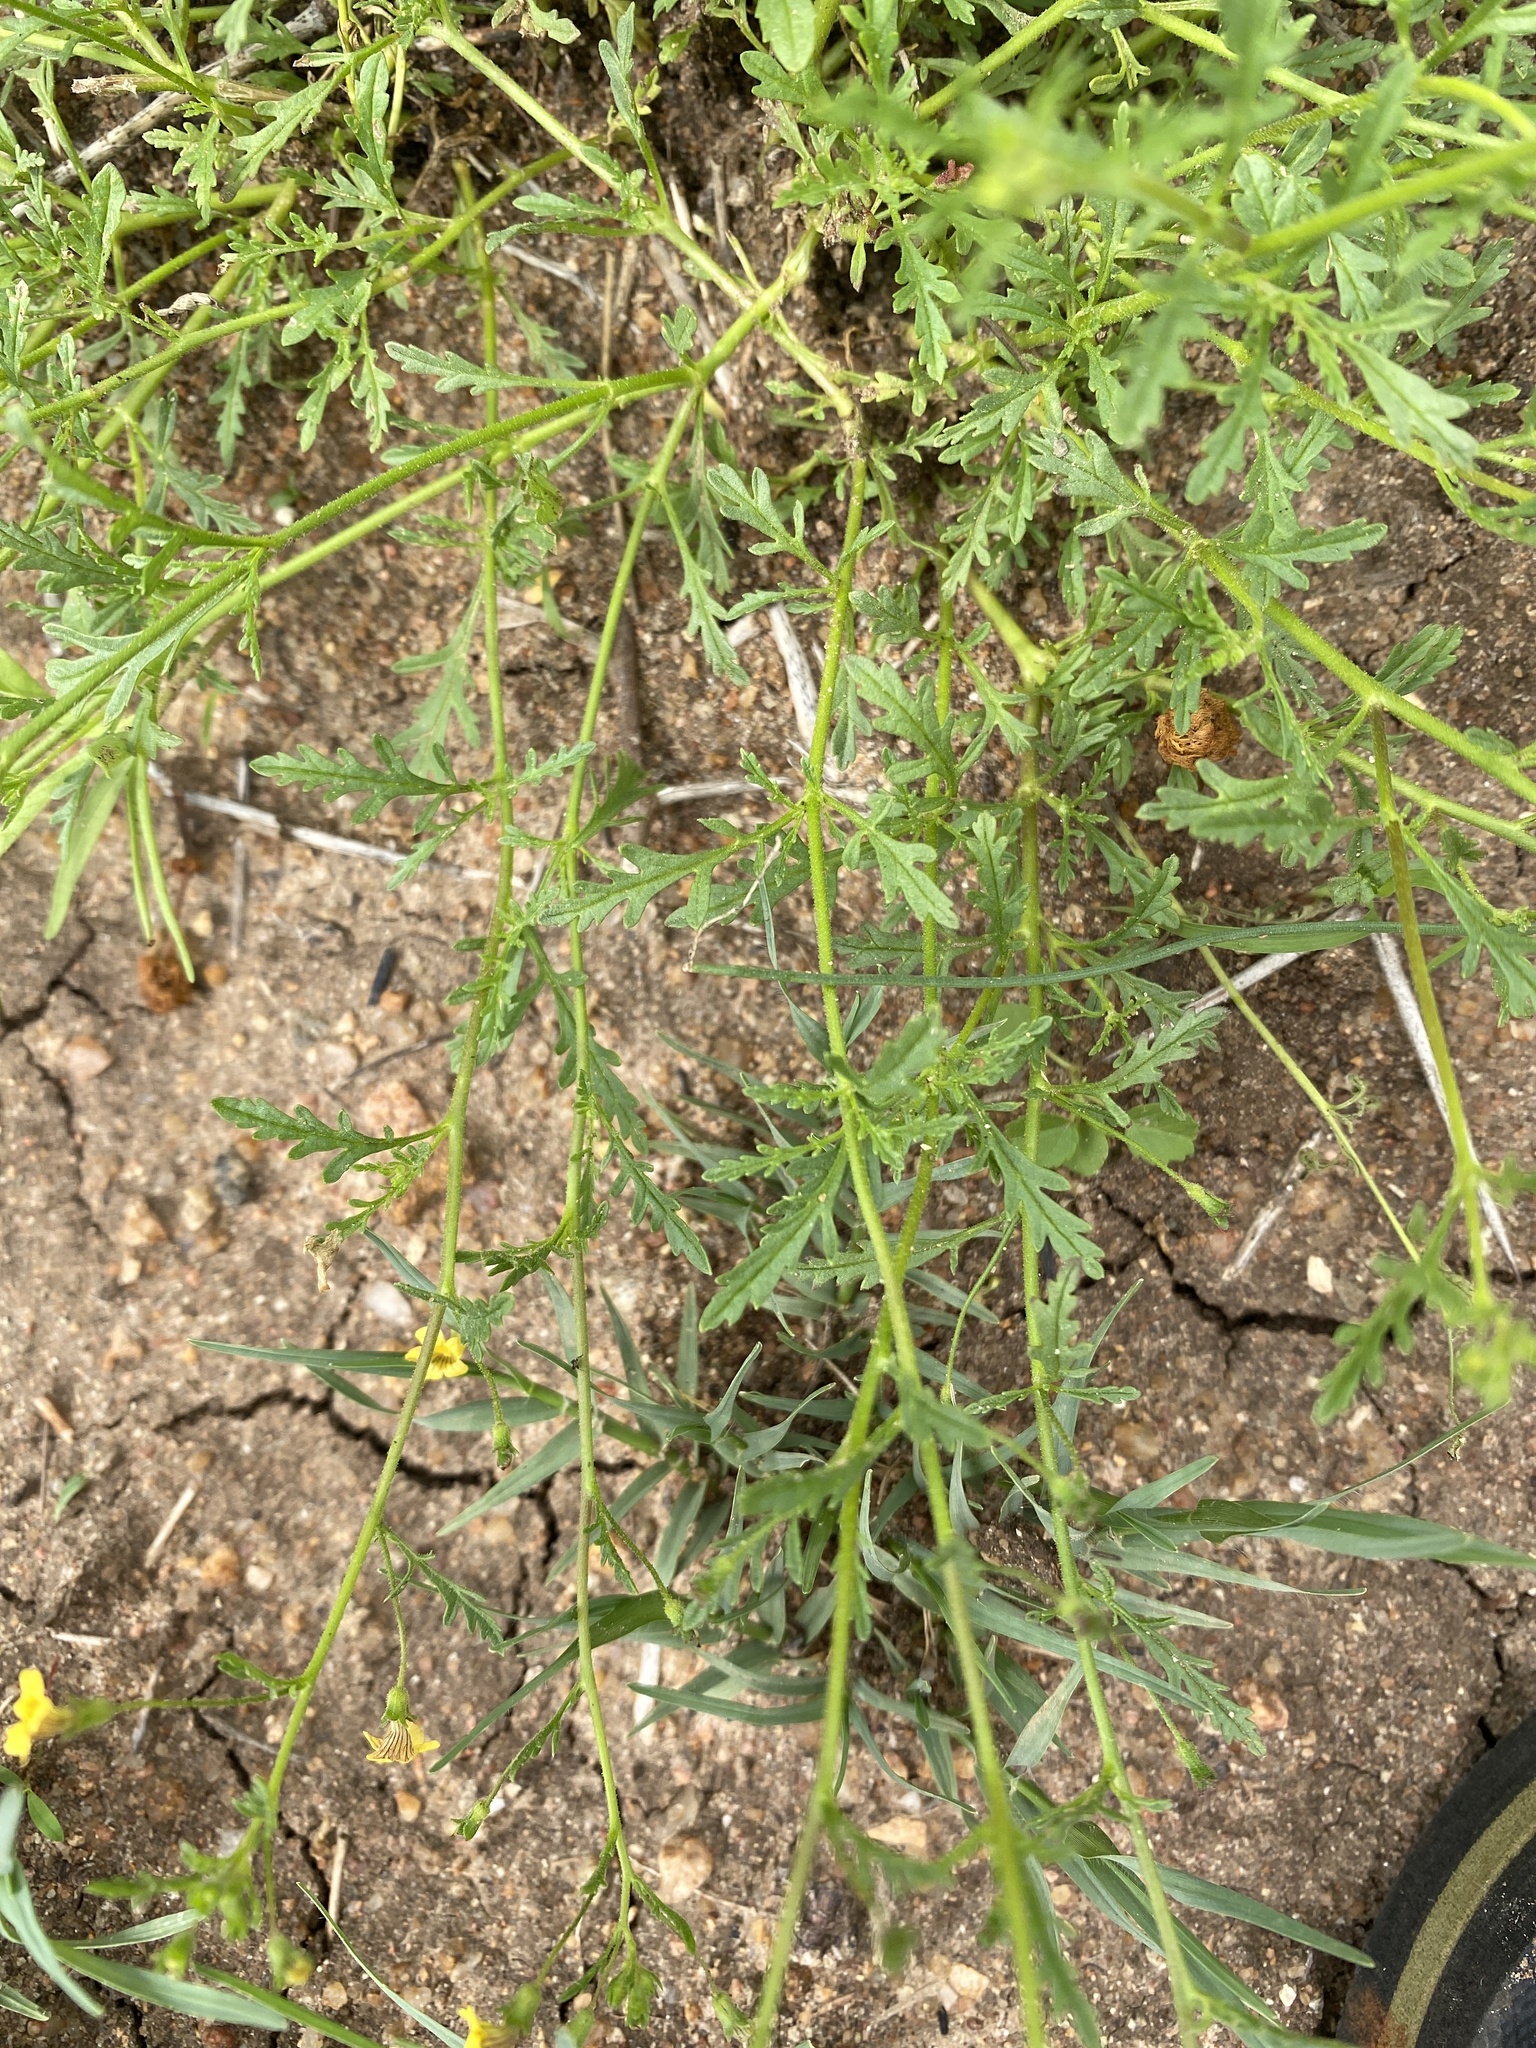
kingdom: Plantae
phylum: Tracheophyta
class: Magnoliopsida
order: Ranunculales
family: Ranunculaceae
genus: Ranunculus
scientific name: Ranunculus multifidus
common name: Wild buttercup
